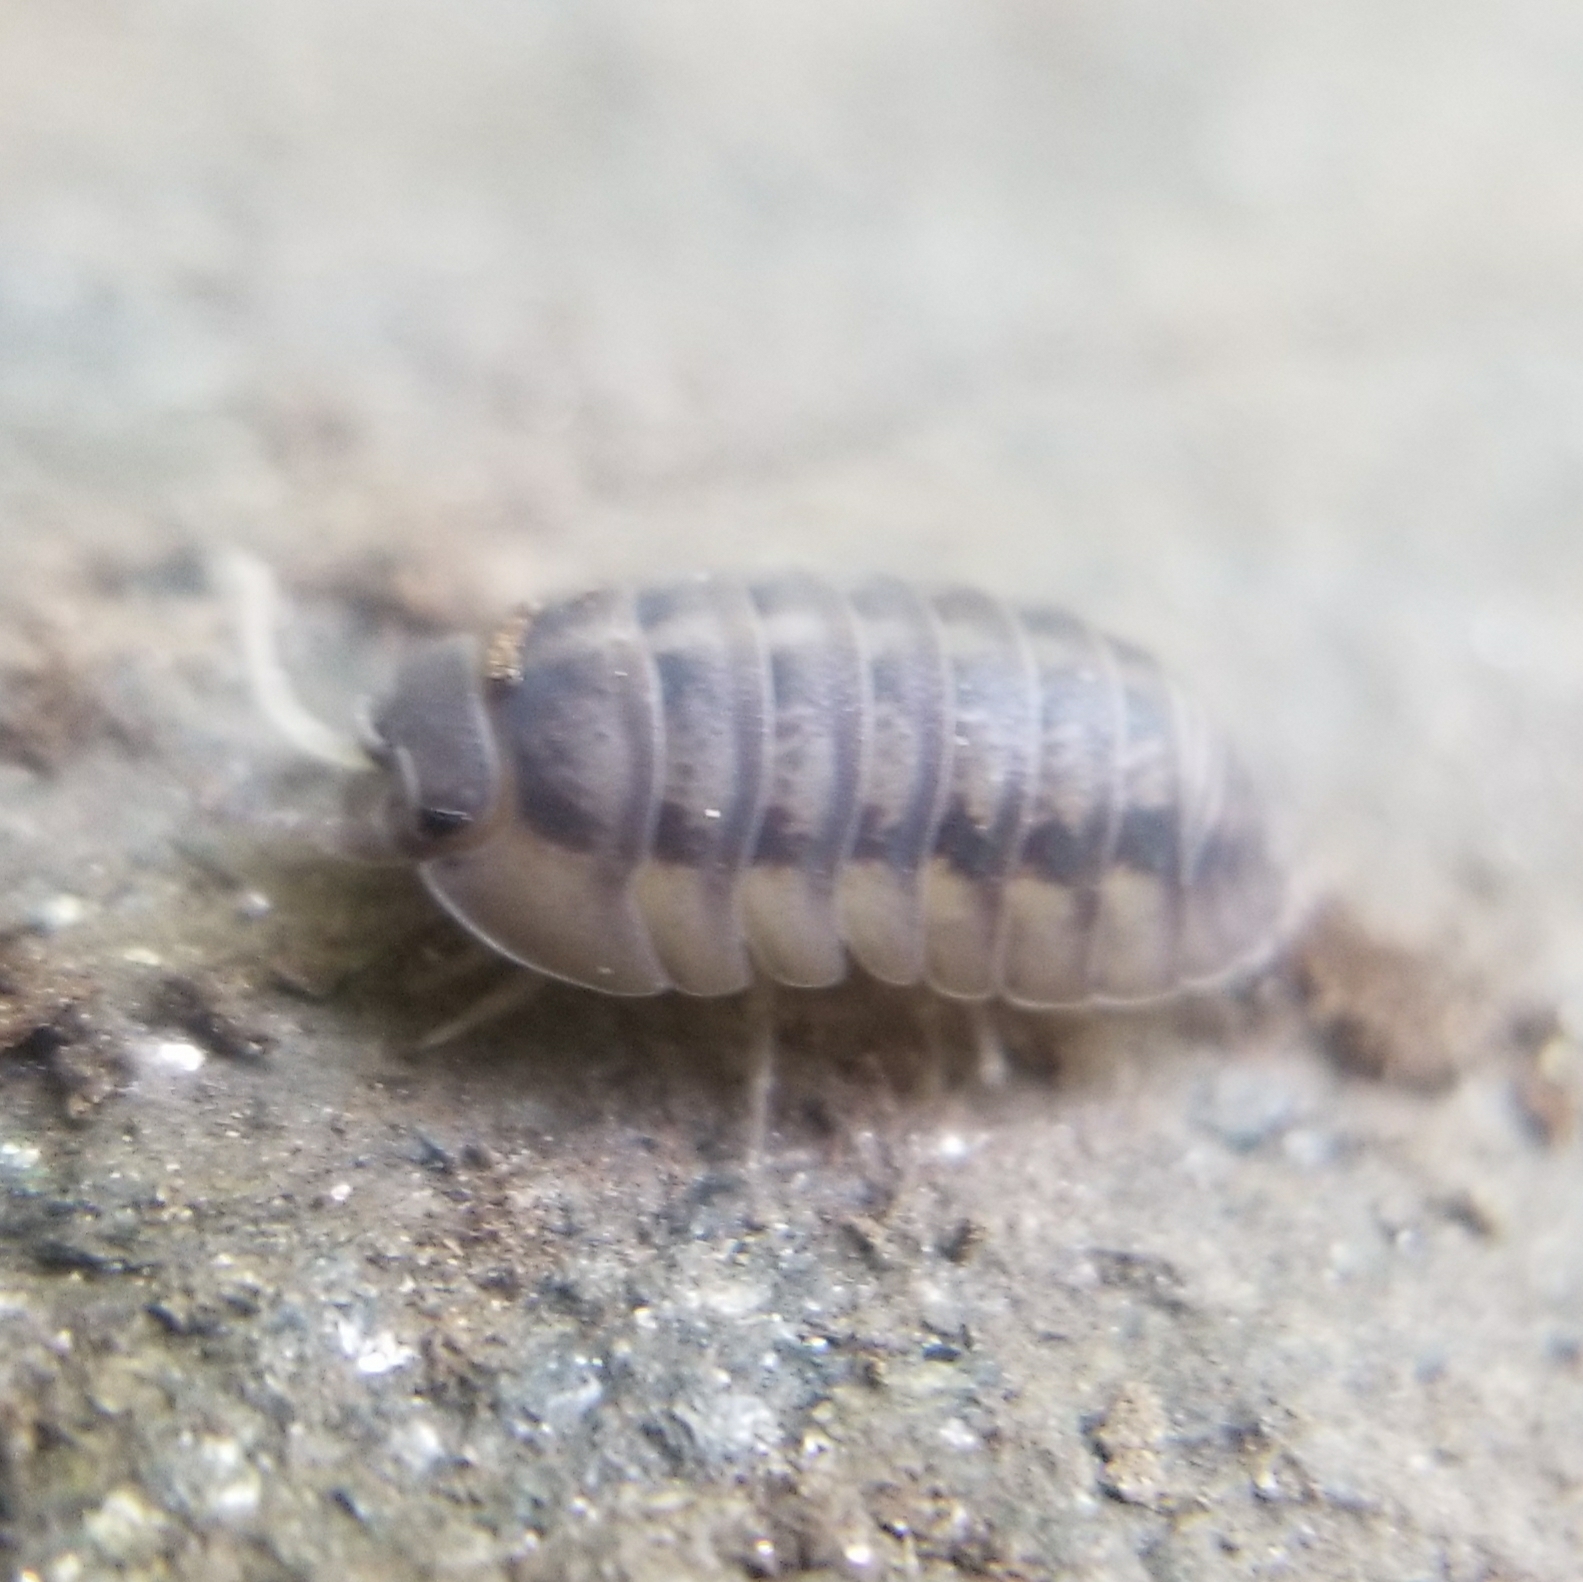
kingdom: Animalia
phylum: Arthropoda
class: Malacostraca
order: Isopoda
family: Armadillidiidae
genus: Armadillidium
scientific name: Armadillidium nasatum
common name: Isopod
